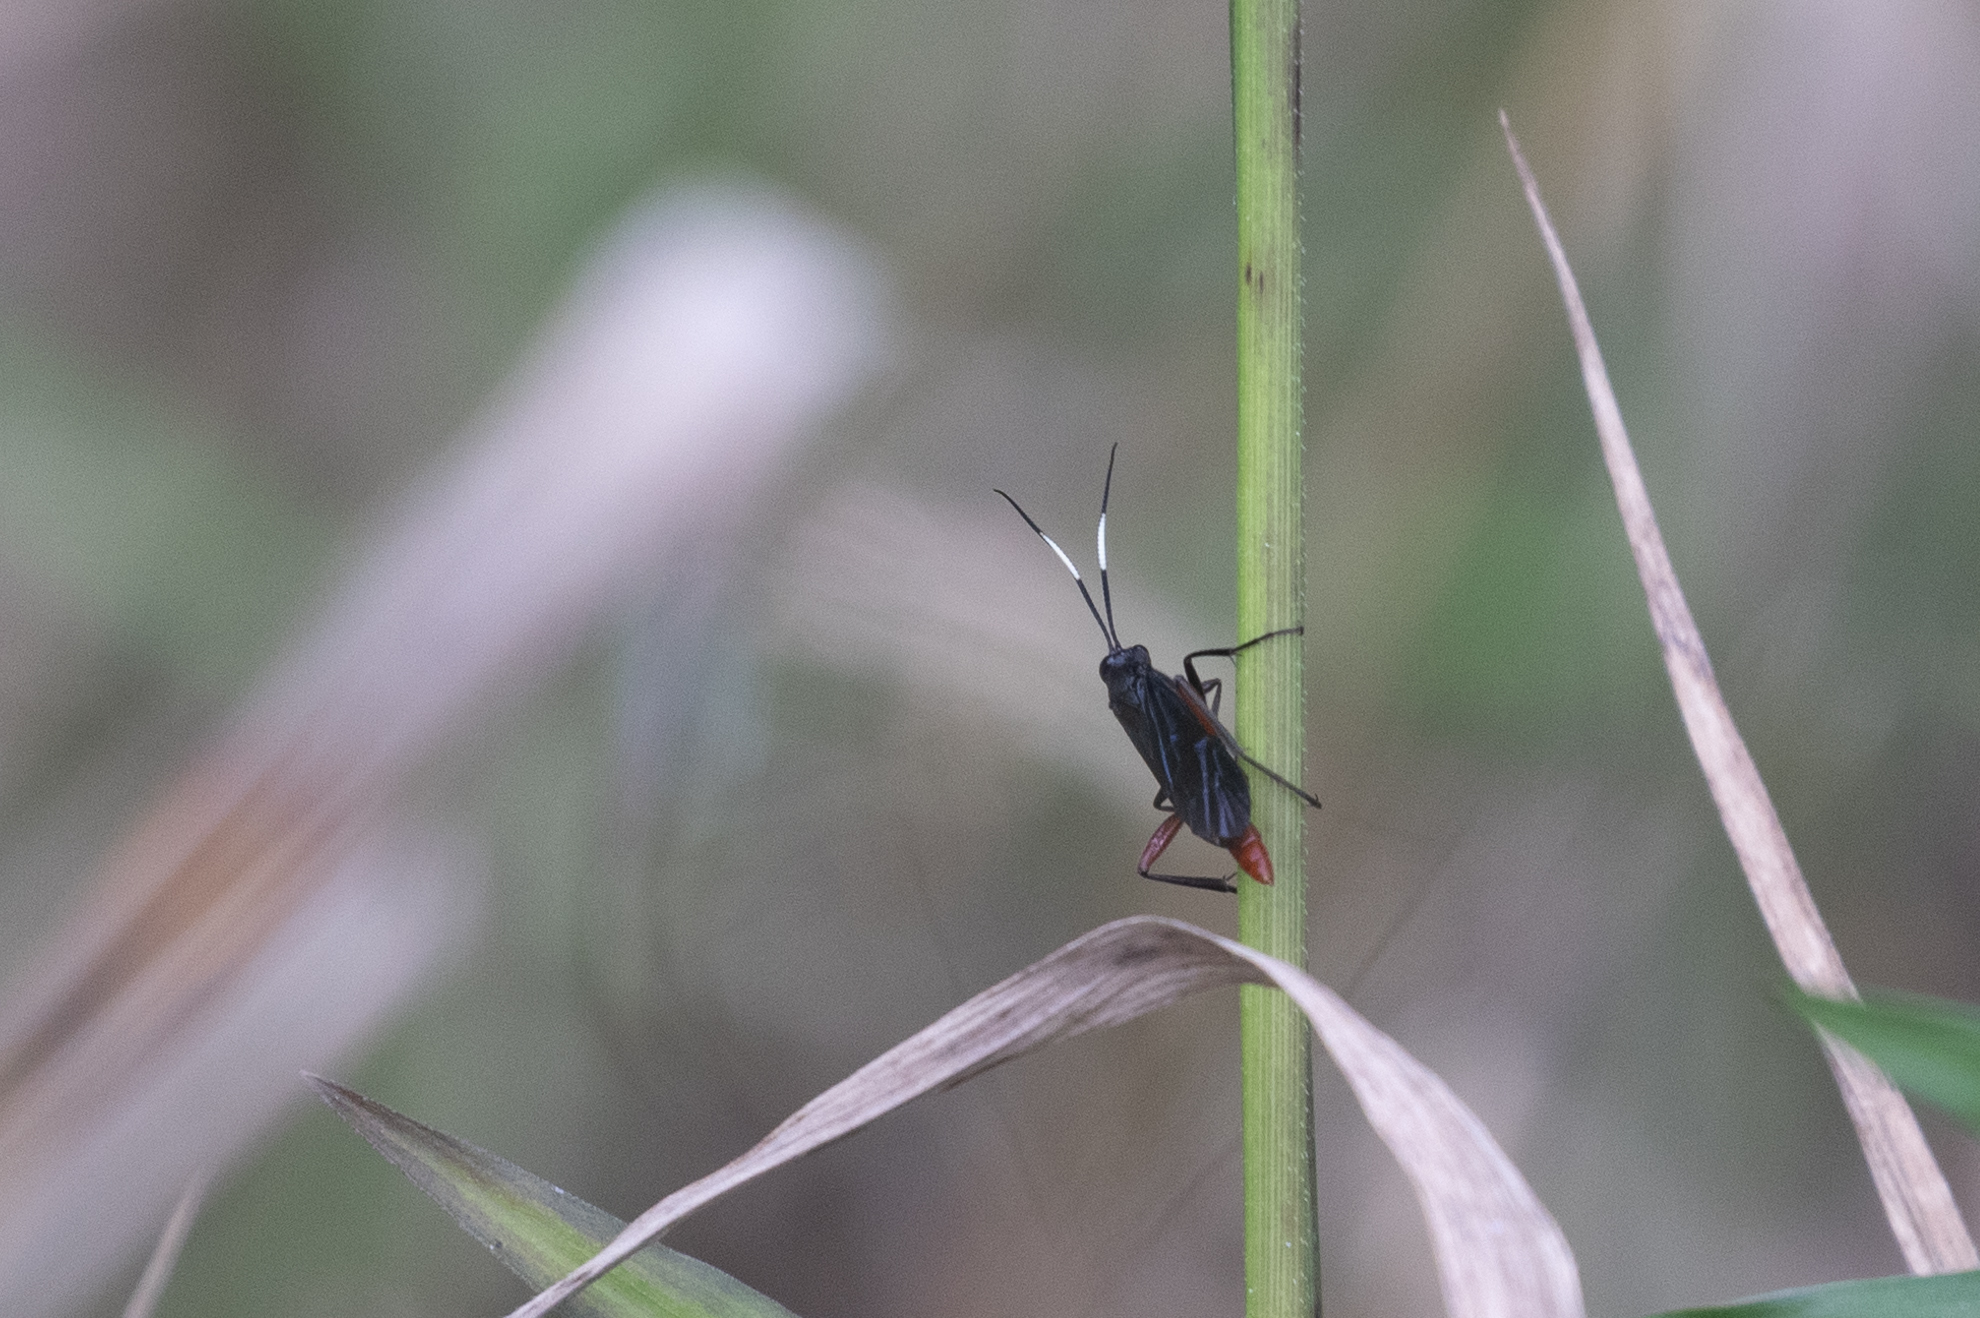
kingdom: Animalia
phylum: Arthropoda
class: Insecta
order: Hymenoptera
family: Ichneumonidae
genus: Limonethe
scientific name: Limonethe maurator
